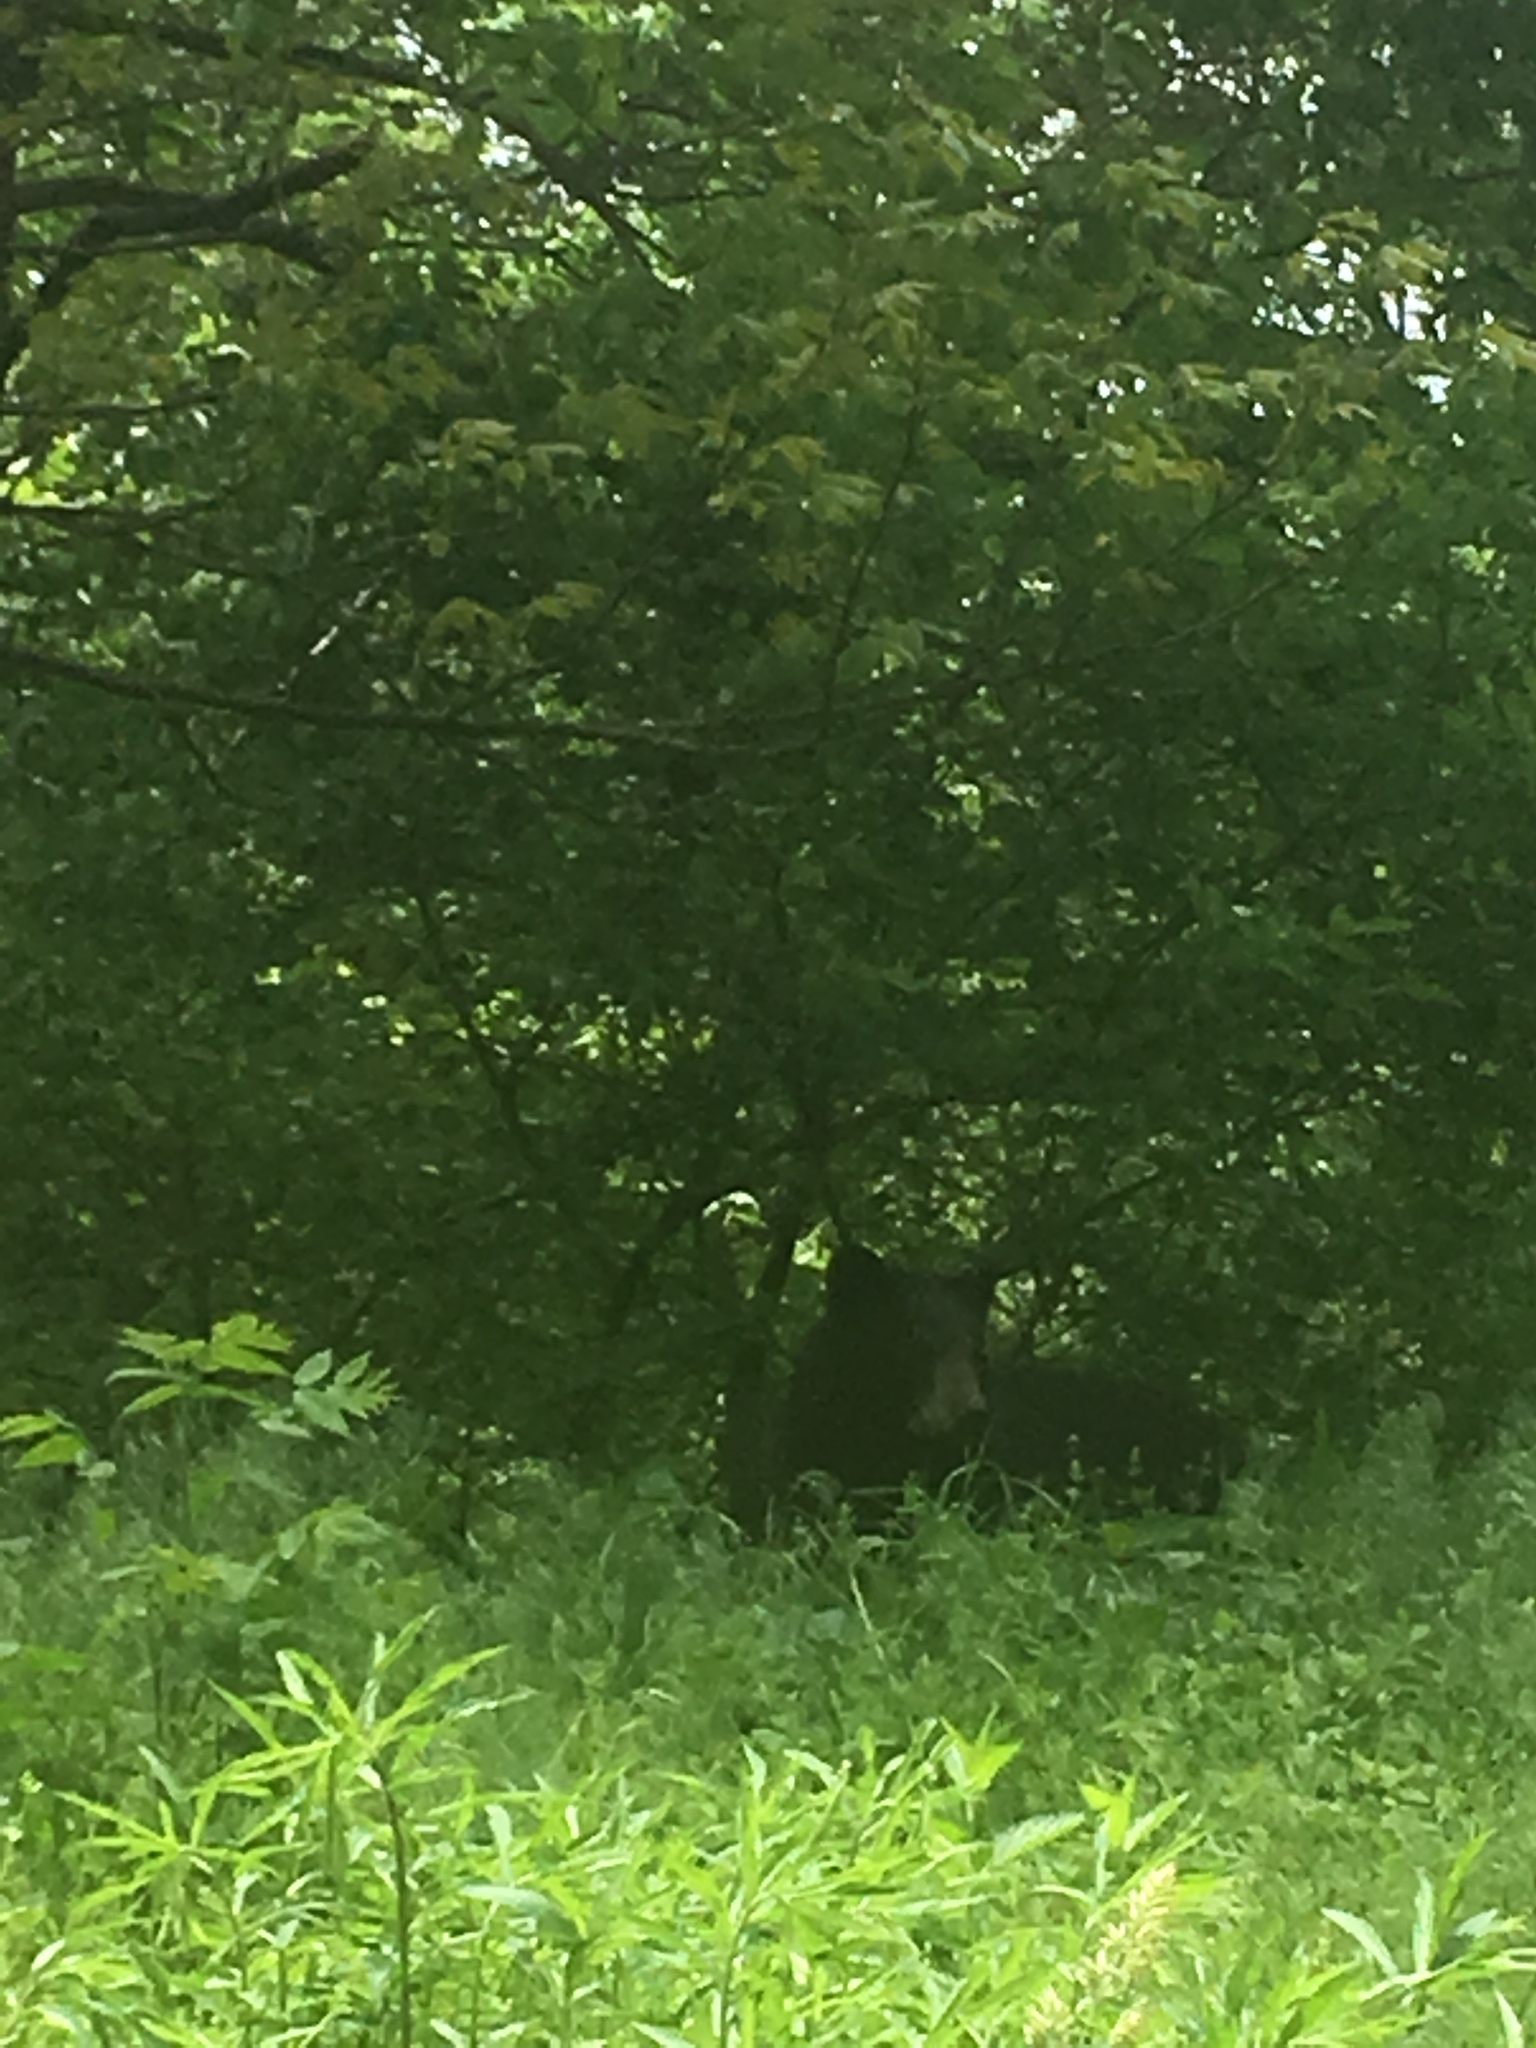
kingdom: Animalia
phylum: Chordata
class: Mammalia
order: Carnivora
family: Ursidae
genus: Ursus
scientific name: Ursus americanus
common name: American black bear
